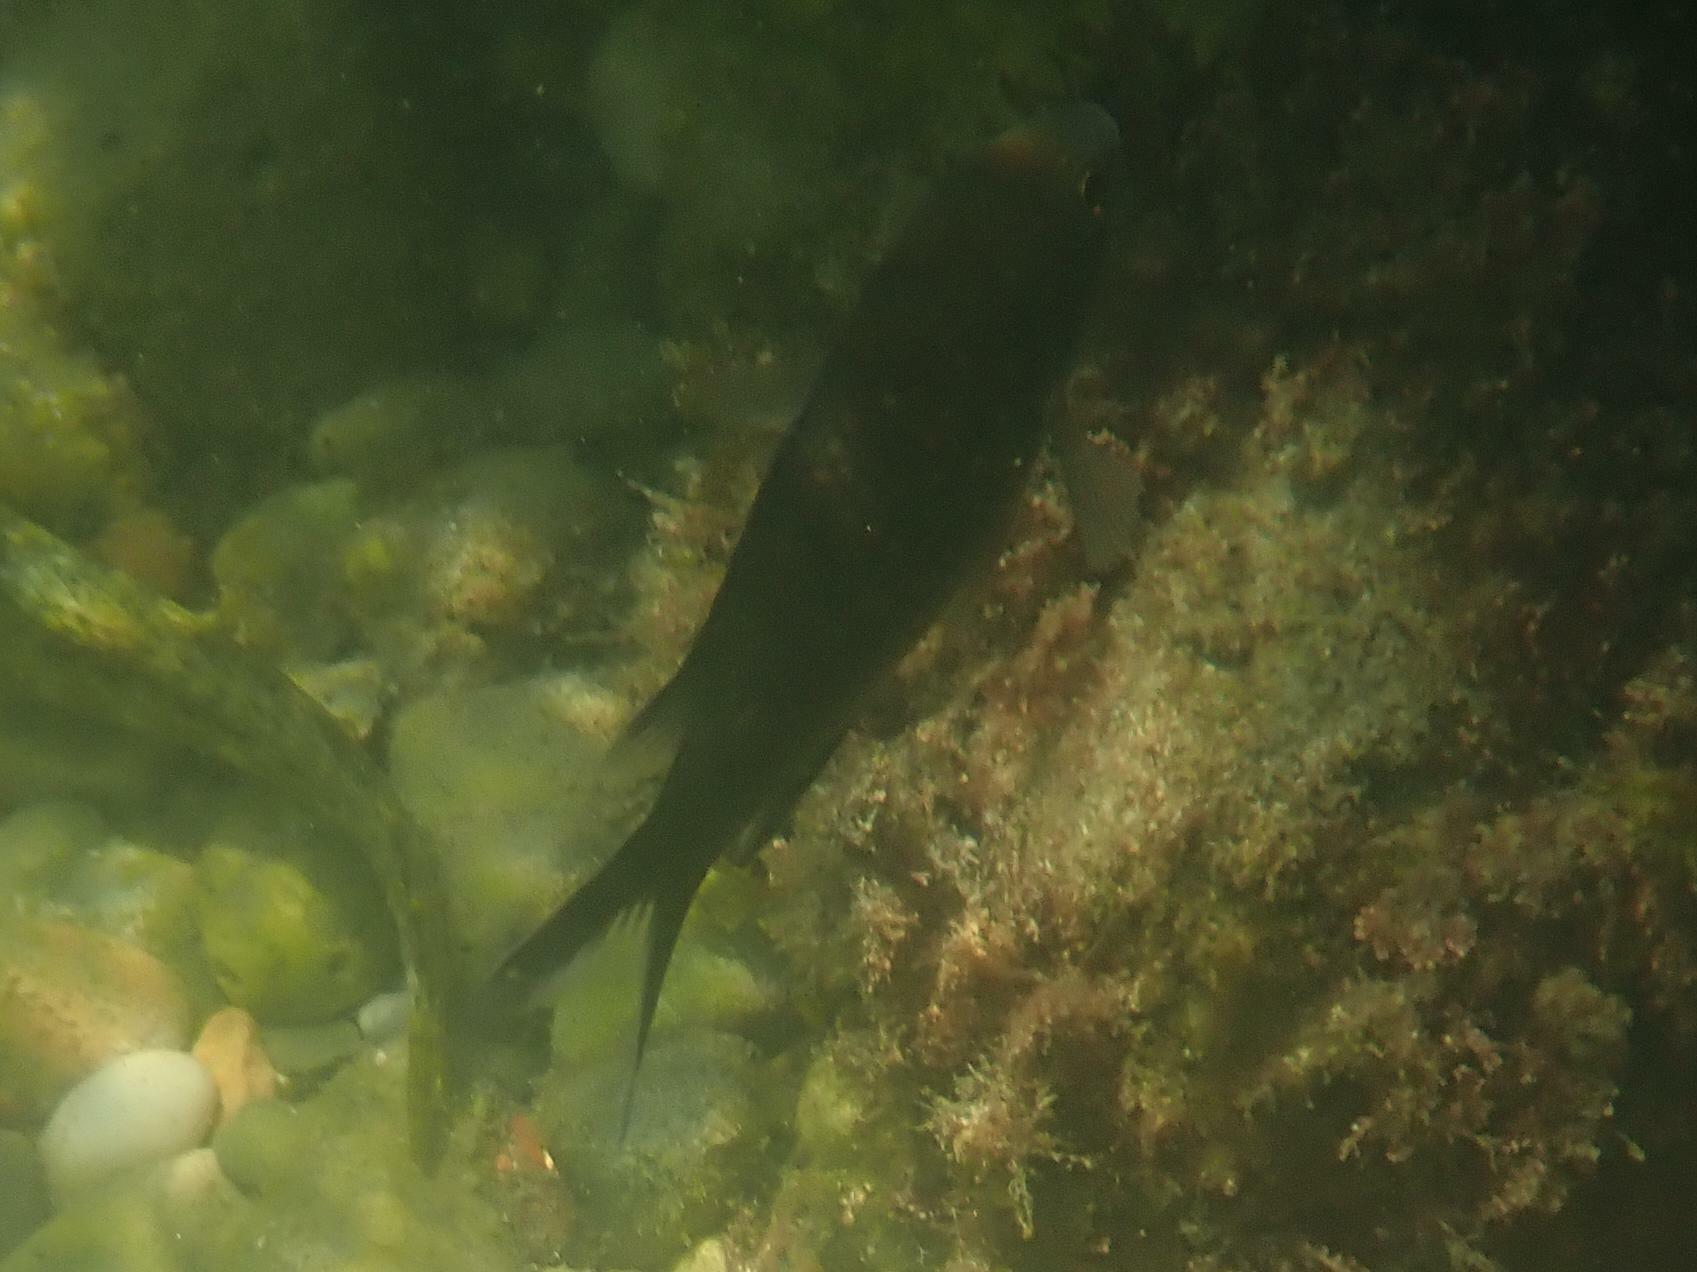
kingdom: Animalia
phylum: Chordata
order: Perciformes
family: Pomacentridae
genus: Chromis
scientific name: Chromis chromis
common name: Damselfish
